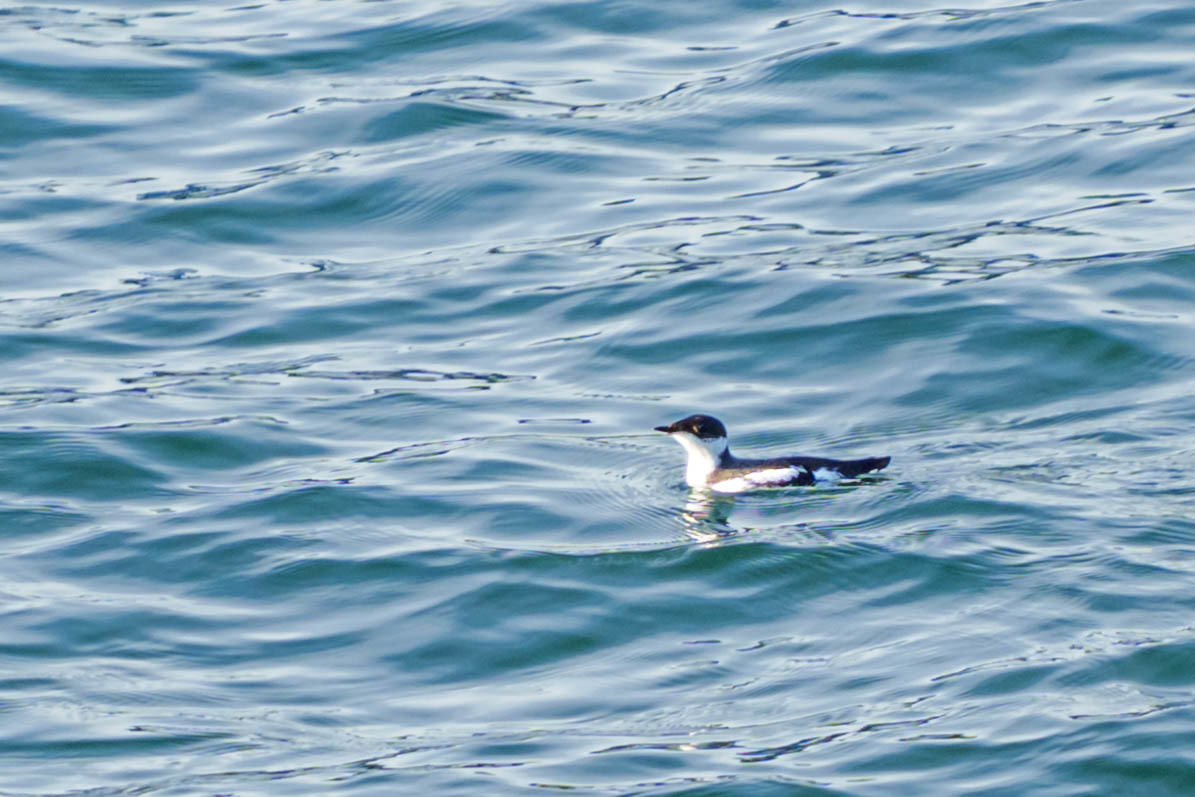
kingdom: Animalia
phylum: Chordata
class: Aves
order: Charadriiformes
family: Alcidae
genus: Brachyramphus
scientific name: Brachyramphus marmoratus
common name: Marbled murrelet
